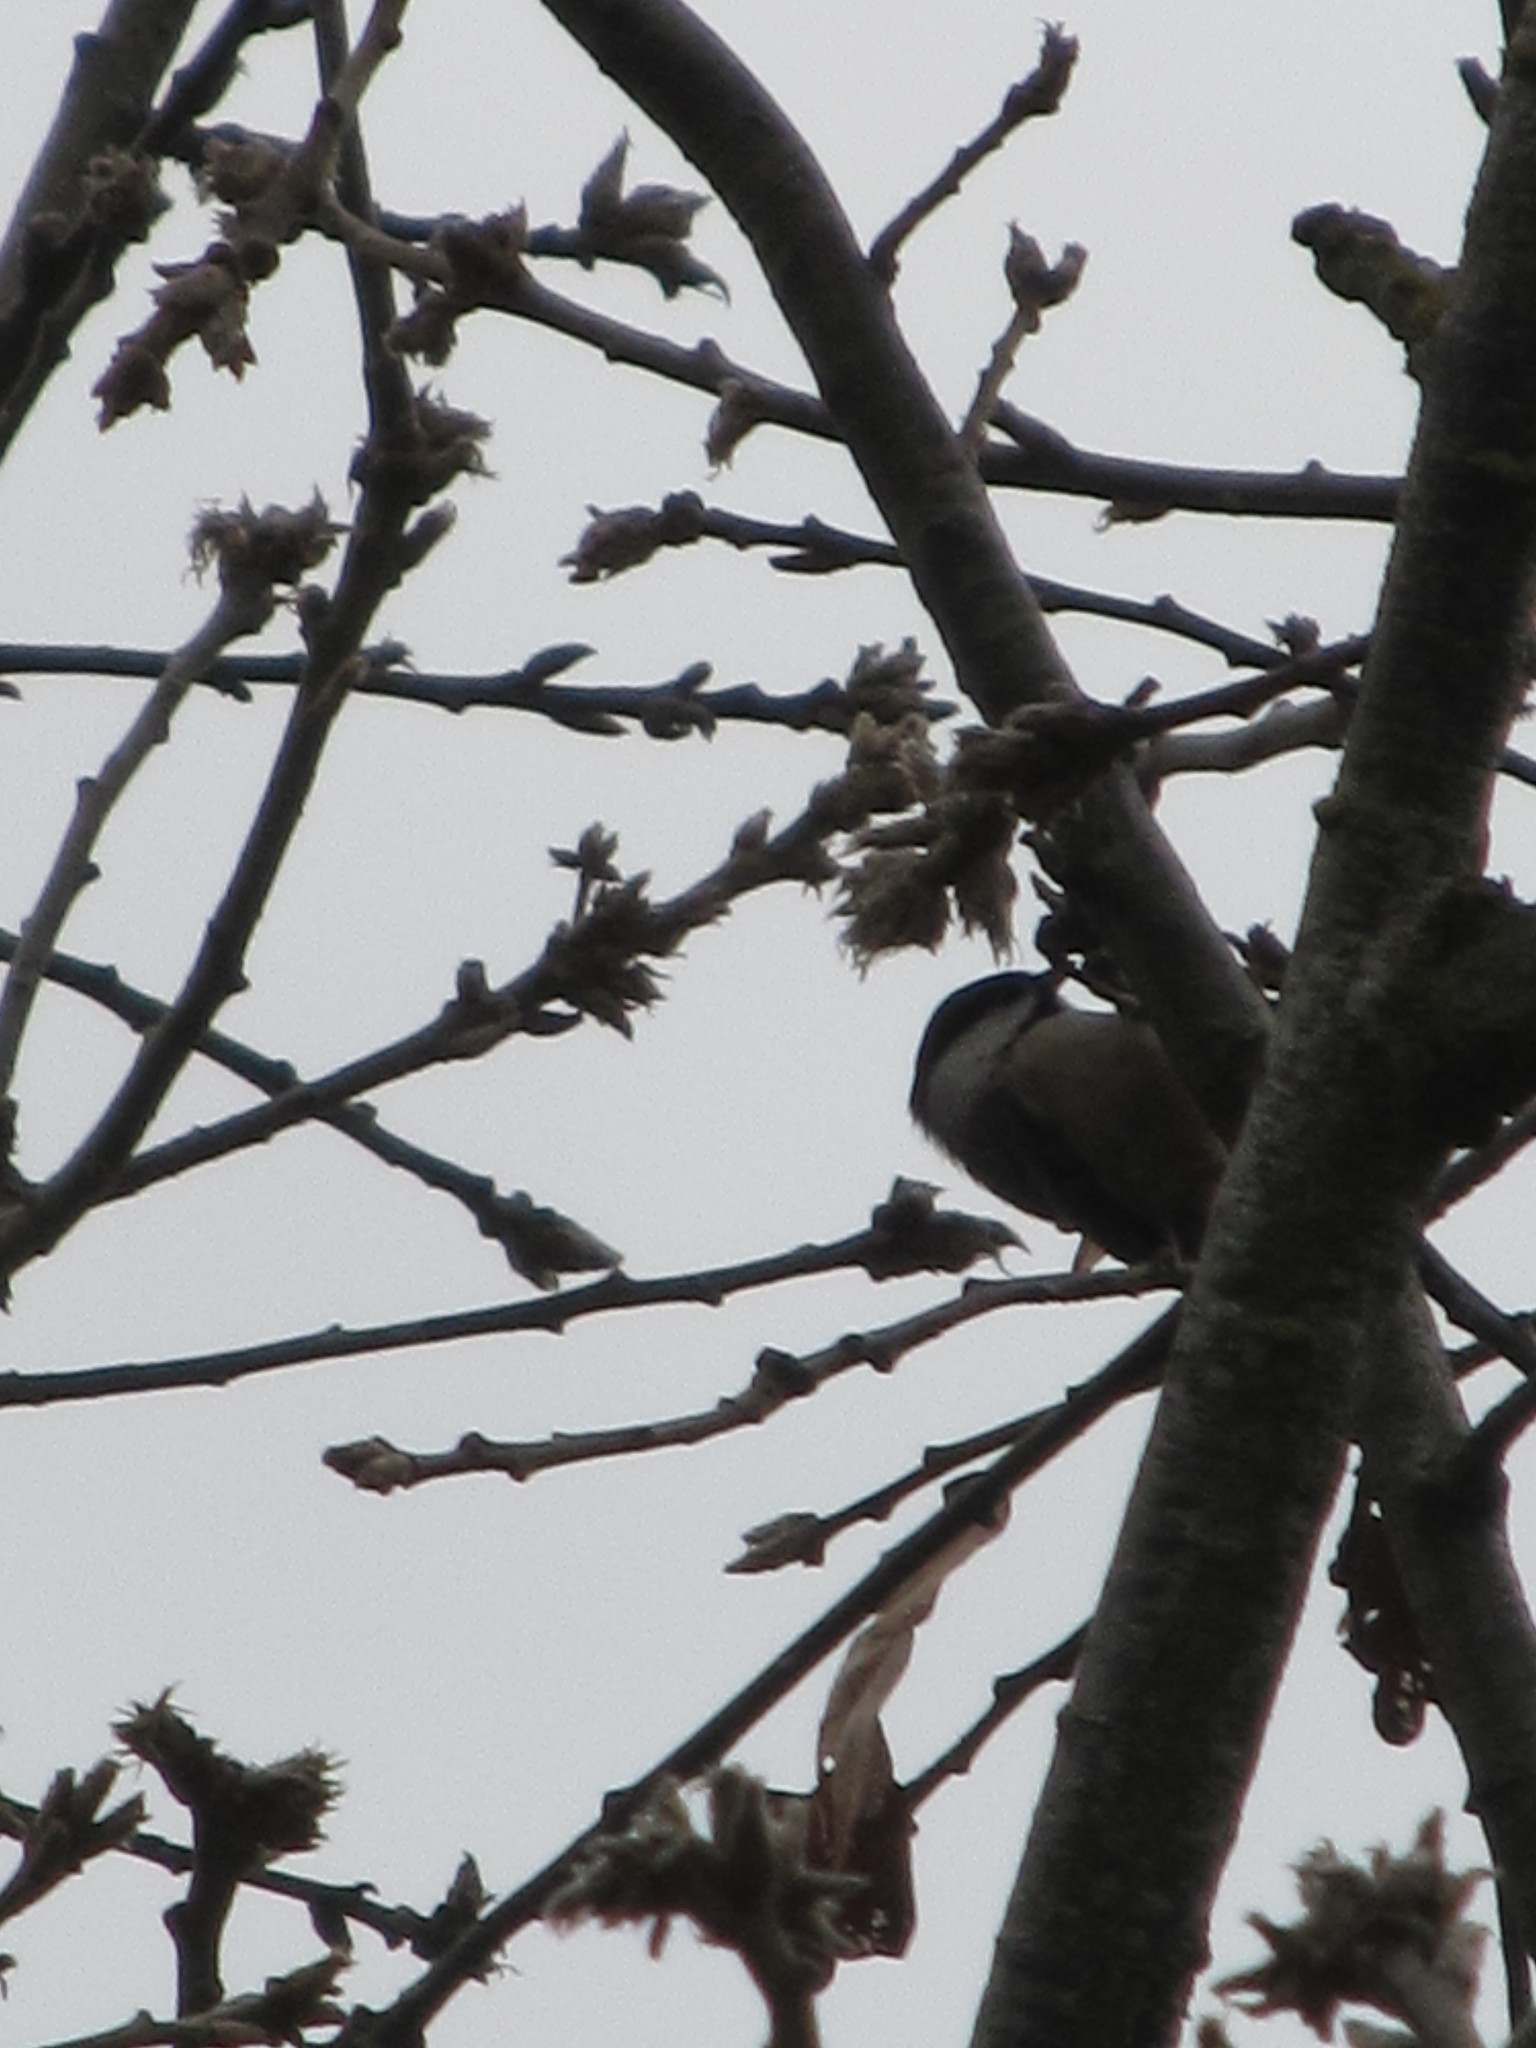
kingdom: Animalia
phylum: Chordata
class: Aves
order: Passeriformes
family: Paridae
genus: Poecile
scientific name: Poecile atricapillus
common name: Black-capped chickadee
